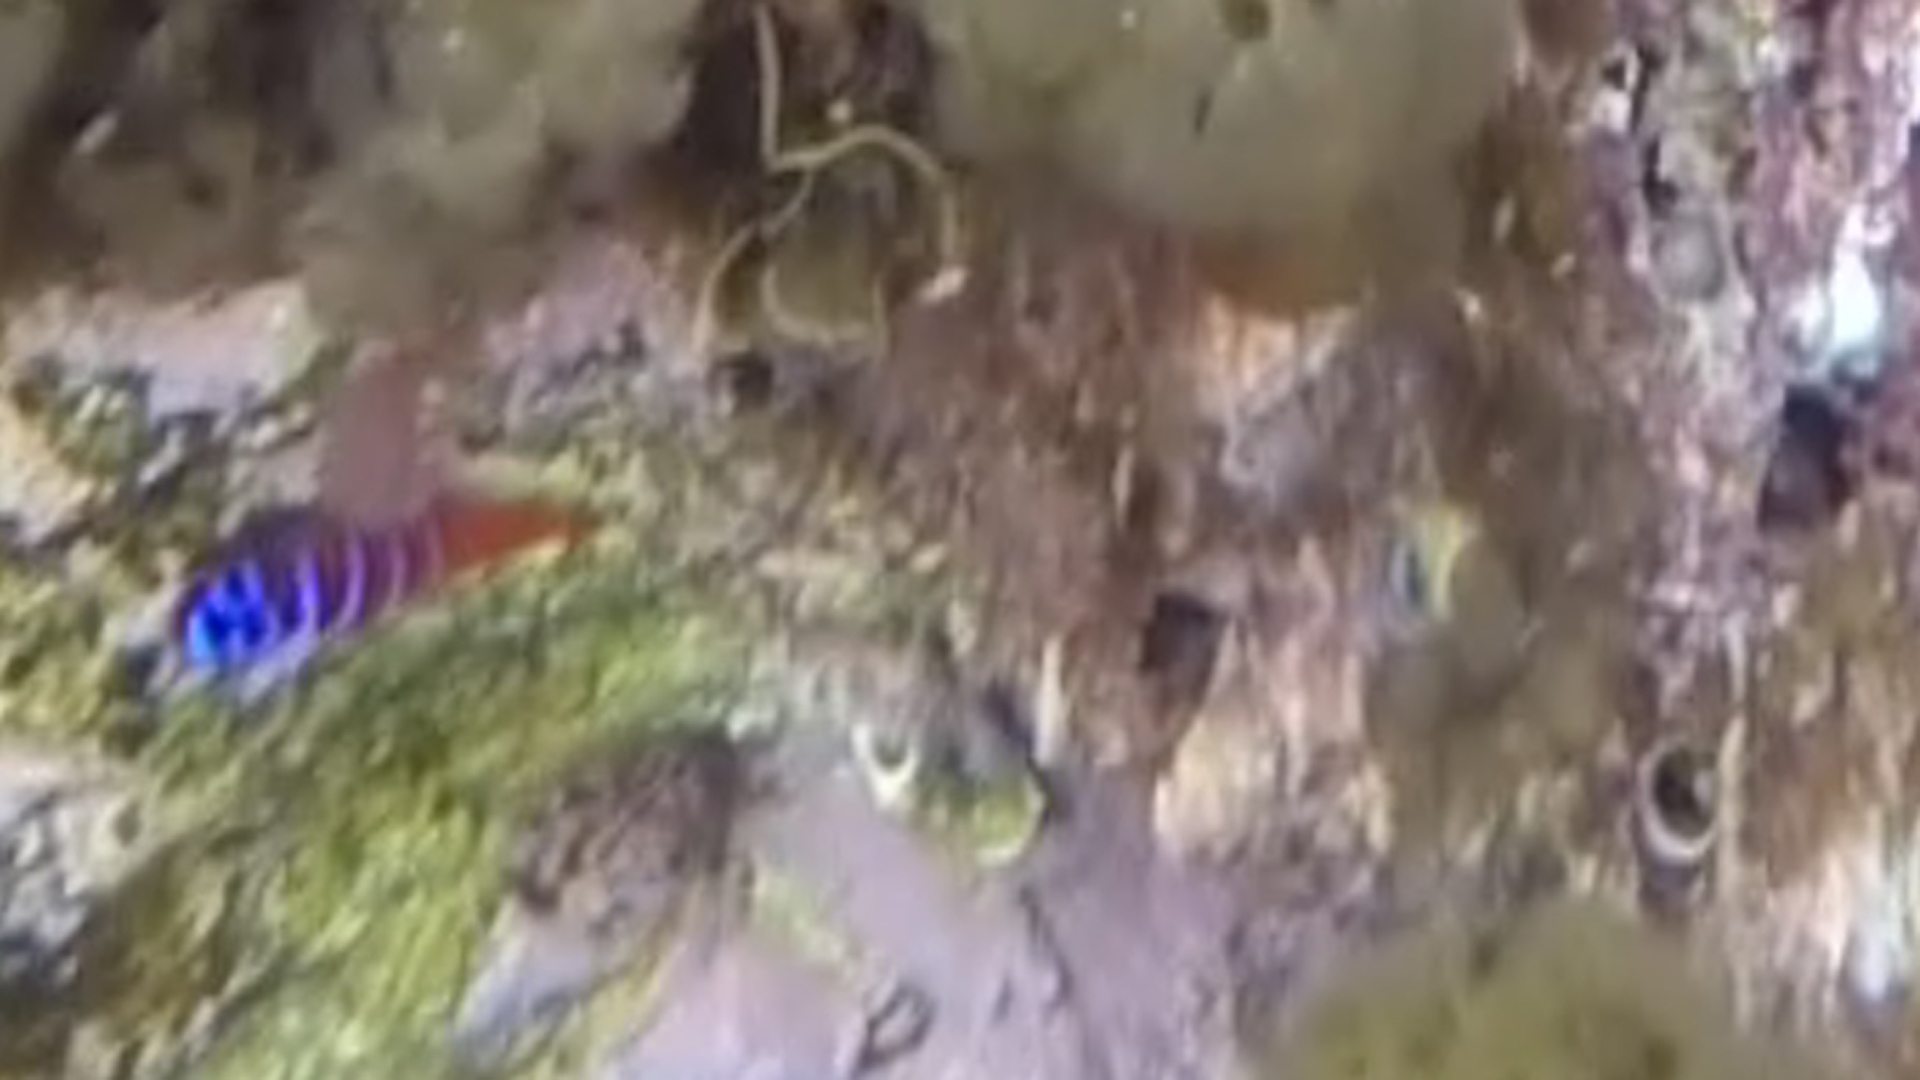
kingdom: Animalia
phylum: Chordata
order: Perciformes
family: Gobiidae
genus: Lythrypnus
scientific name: Lythrypnus dalli
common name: Bluebanded goby
